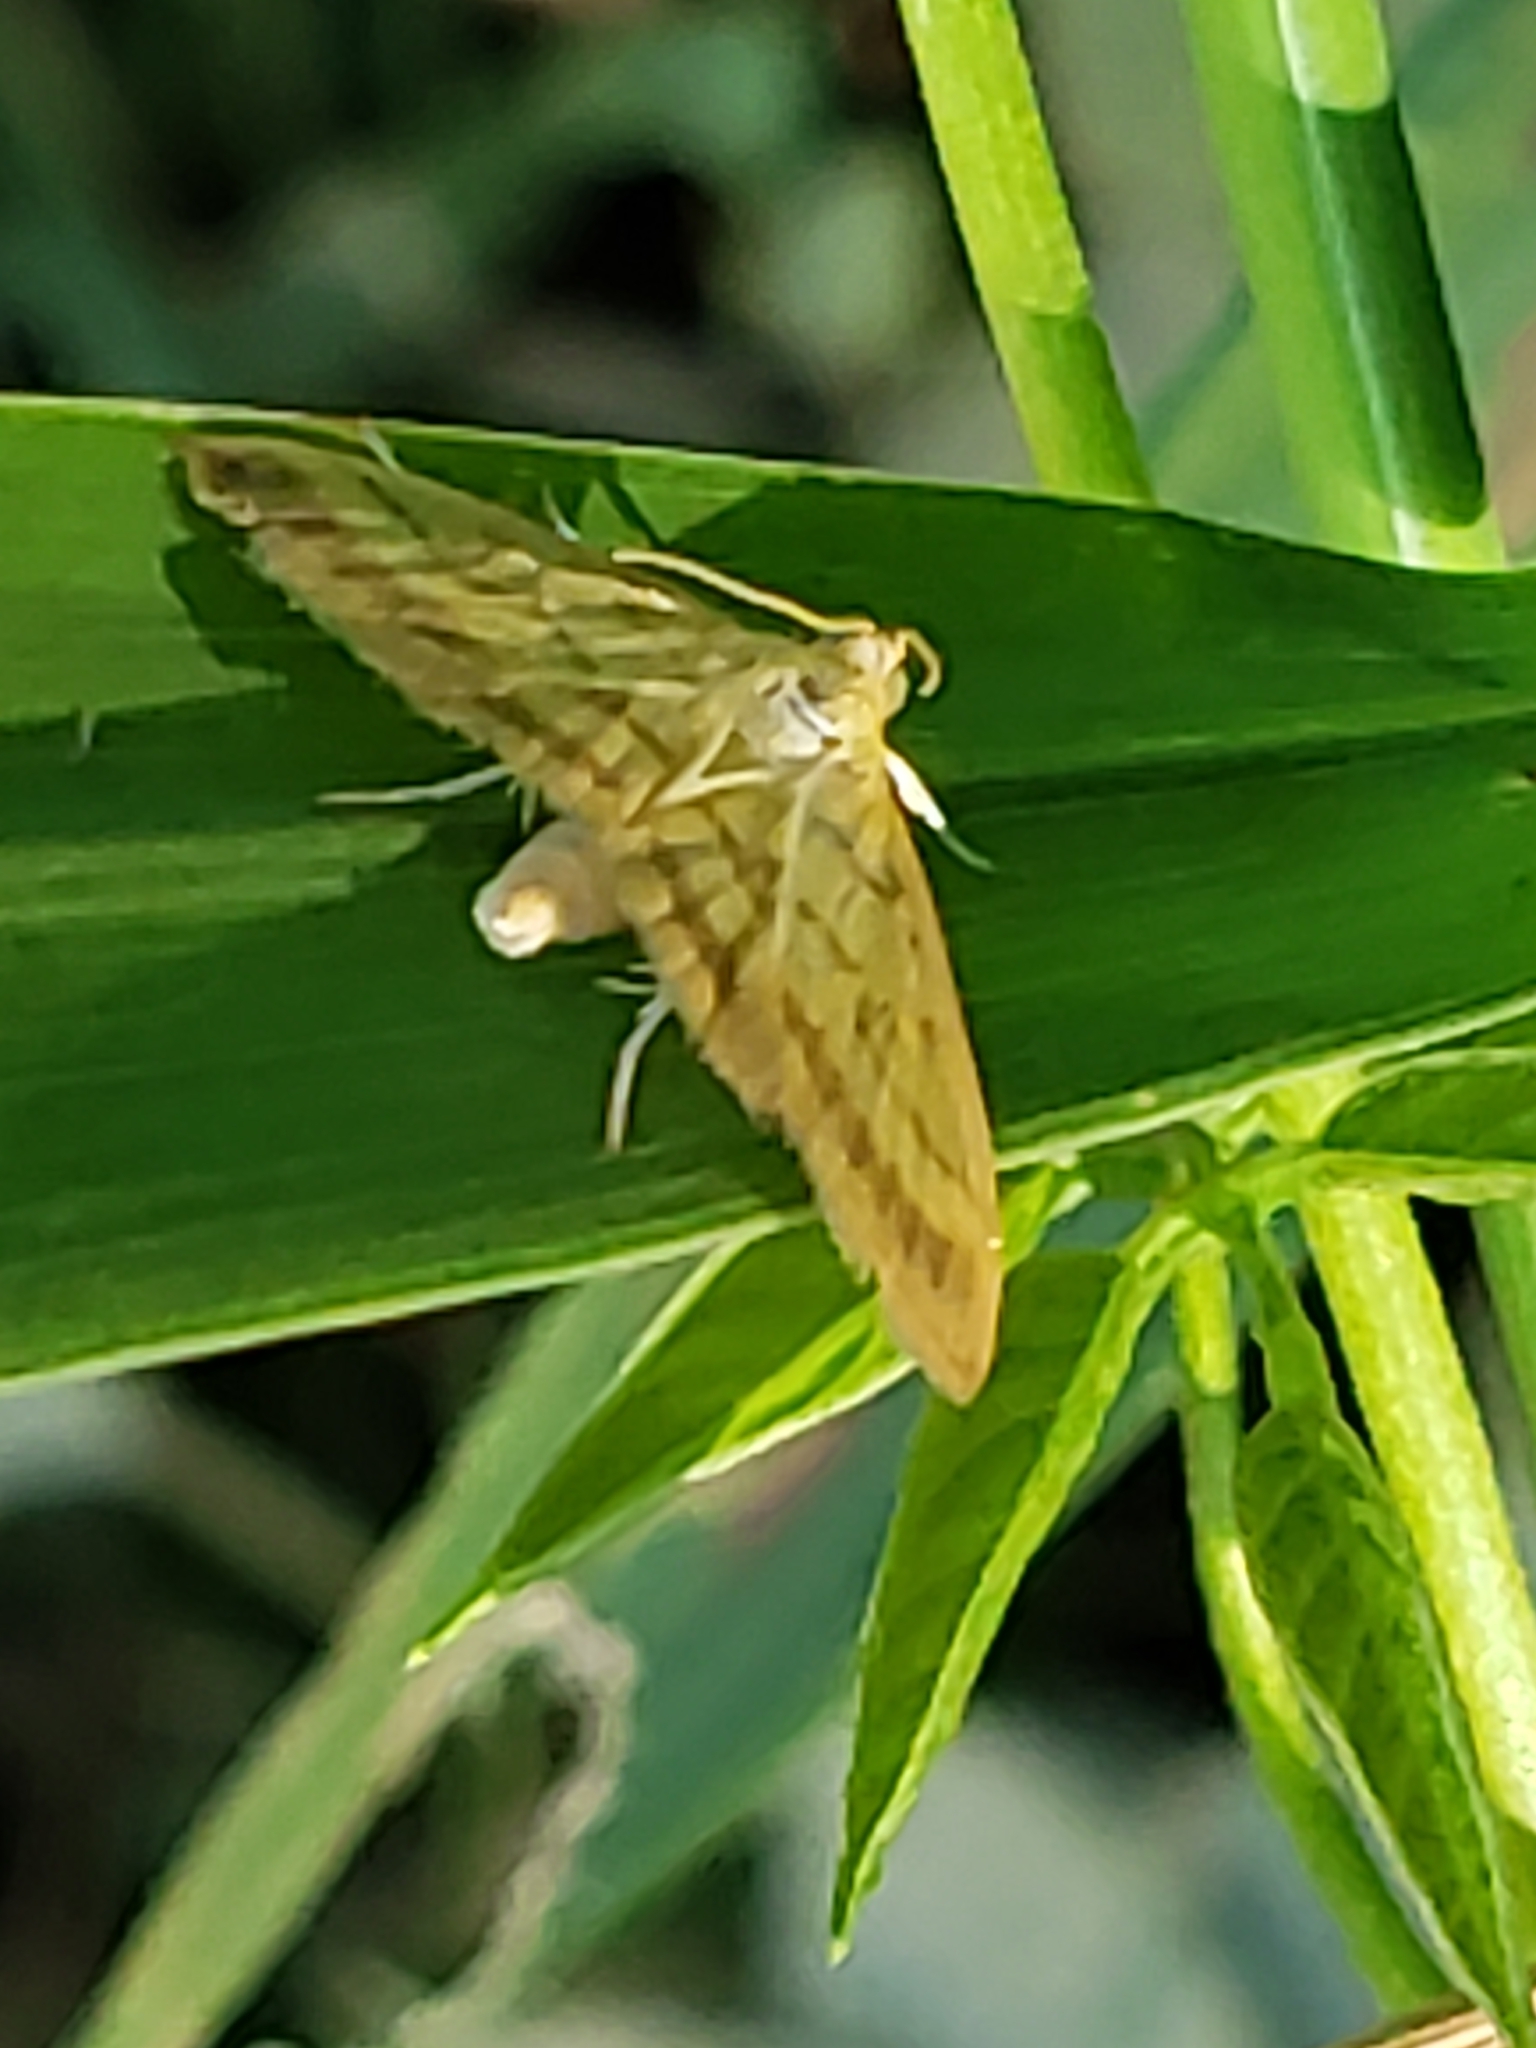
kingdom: Animalia
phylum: Arthropoda
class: Insecta
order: Lepidoptera
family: Crambidae
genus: Crocidophora
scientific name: Crocidophora tuberculalis
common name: Pale-winged crocidiphora moth
